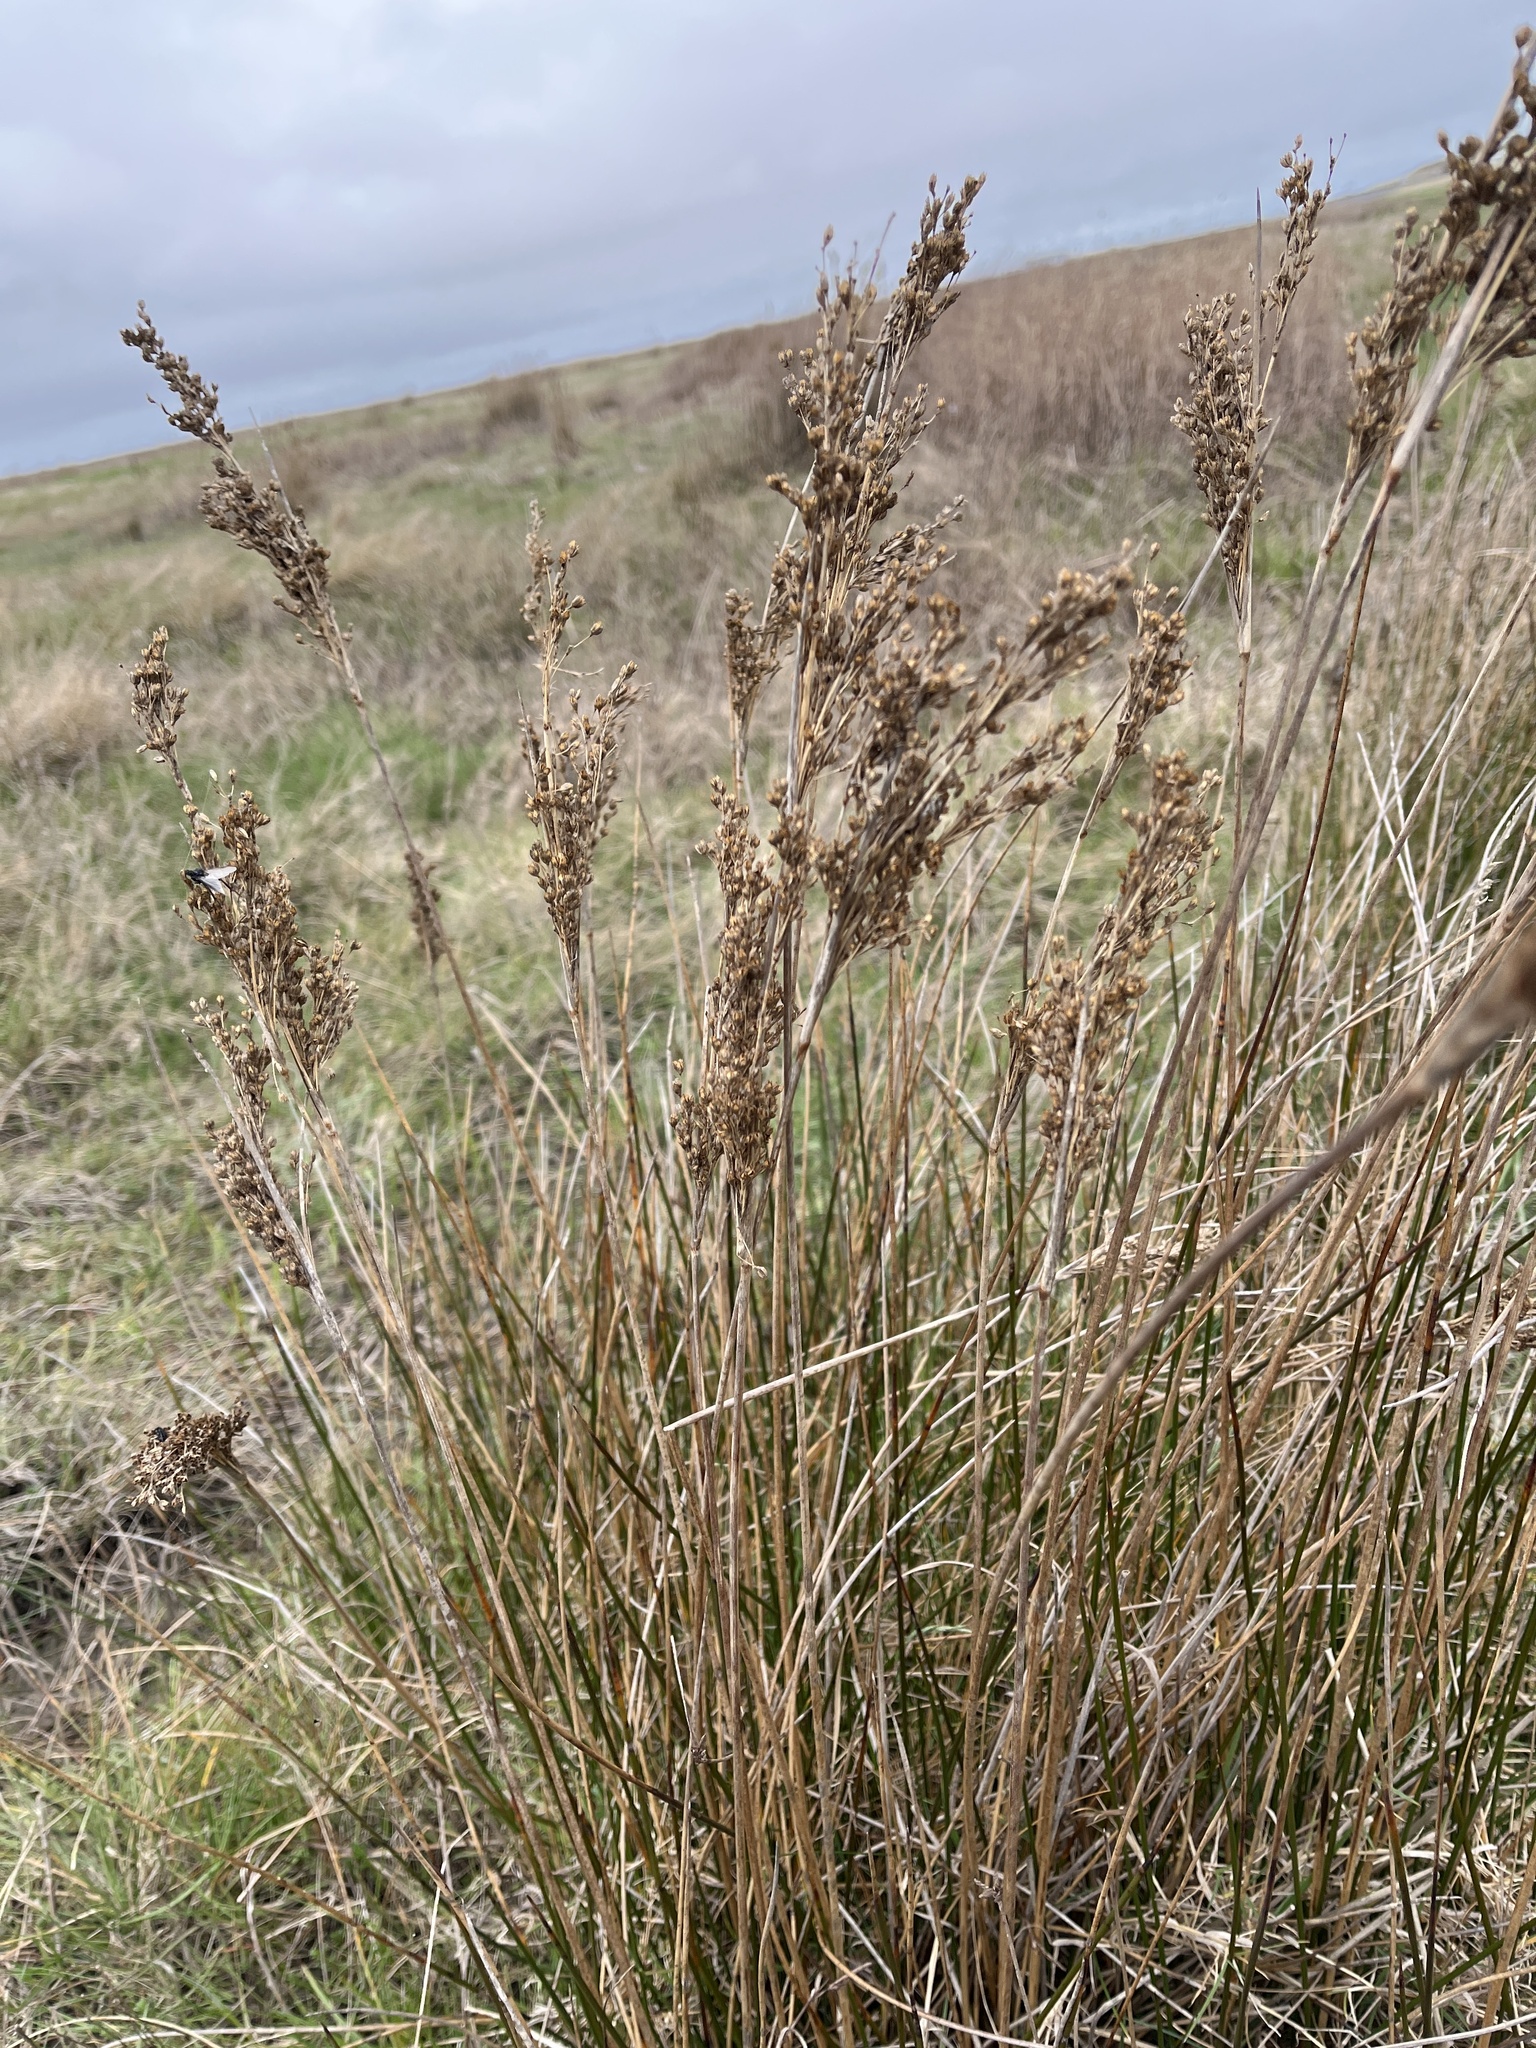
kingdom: Plantae
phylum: Tracheophyta
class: Liliopsida
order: Poales
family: Juncaceae
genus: Juncus
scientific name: Juncus maritimus
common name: Sea rush
